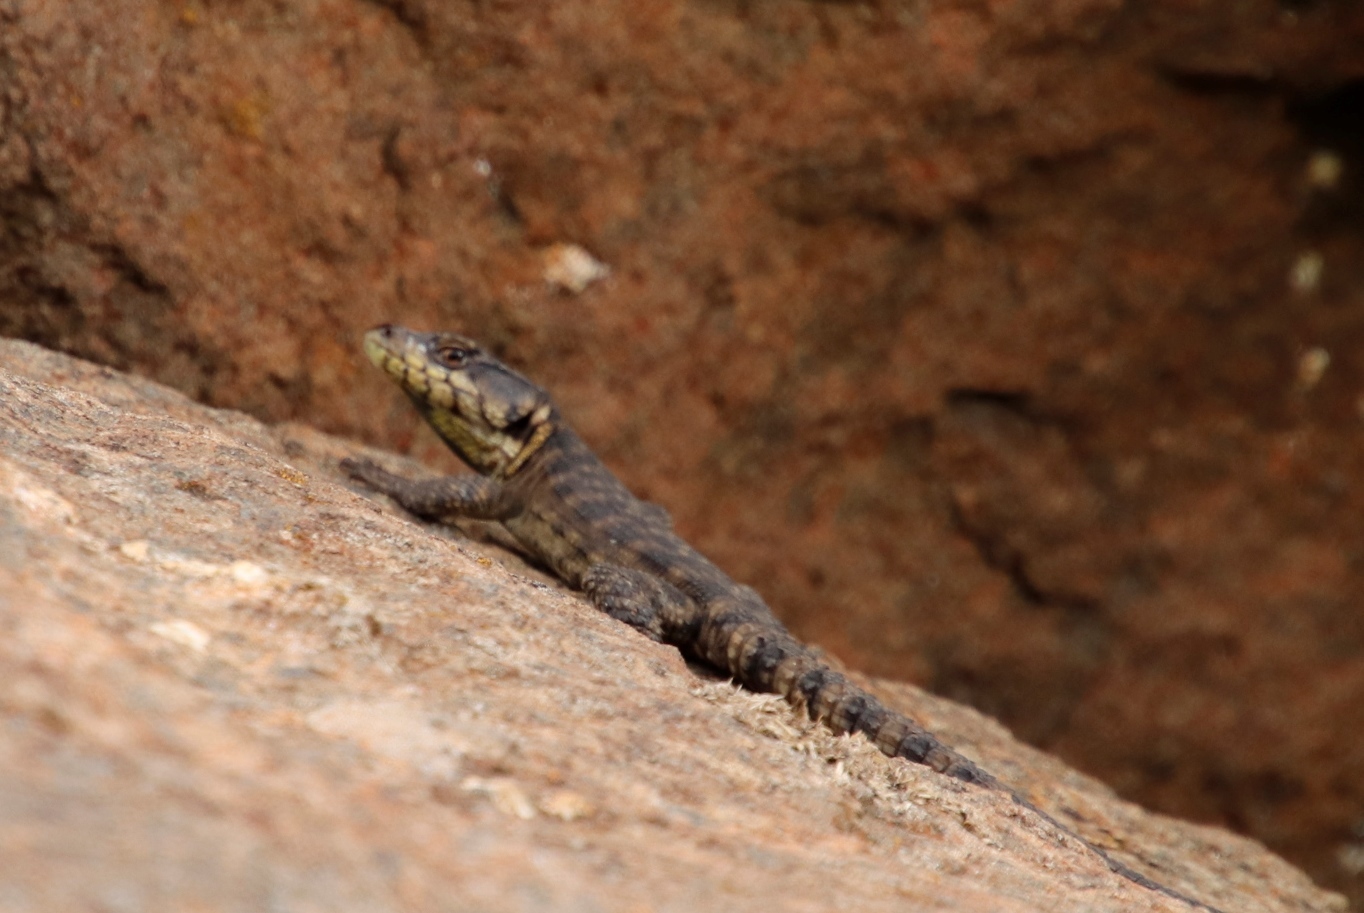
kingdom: Animalia
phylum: Chordata
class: Squamata
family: Cordylidae
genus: Pseudocordylus
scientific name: Pseudocordylus subviridis
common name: Drakensberg crag lizard
